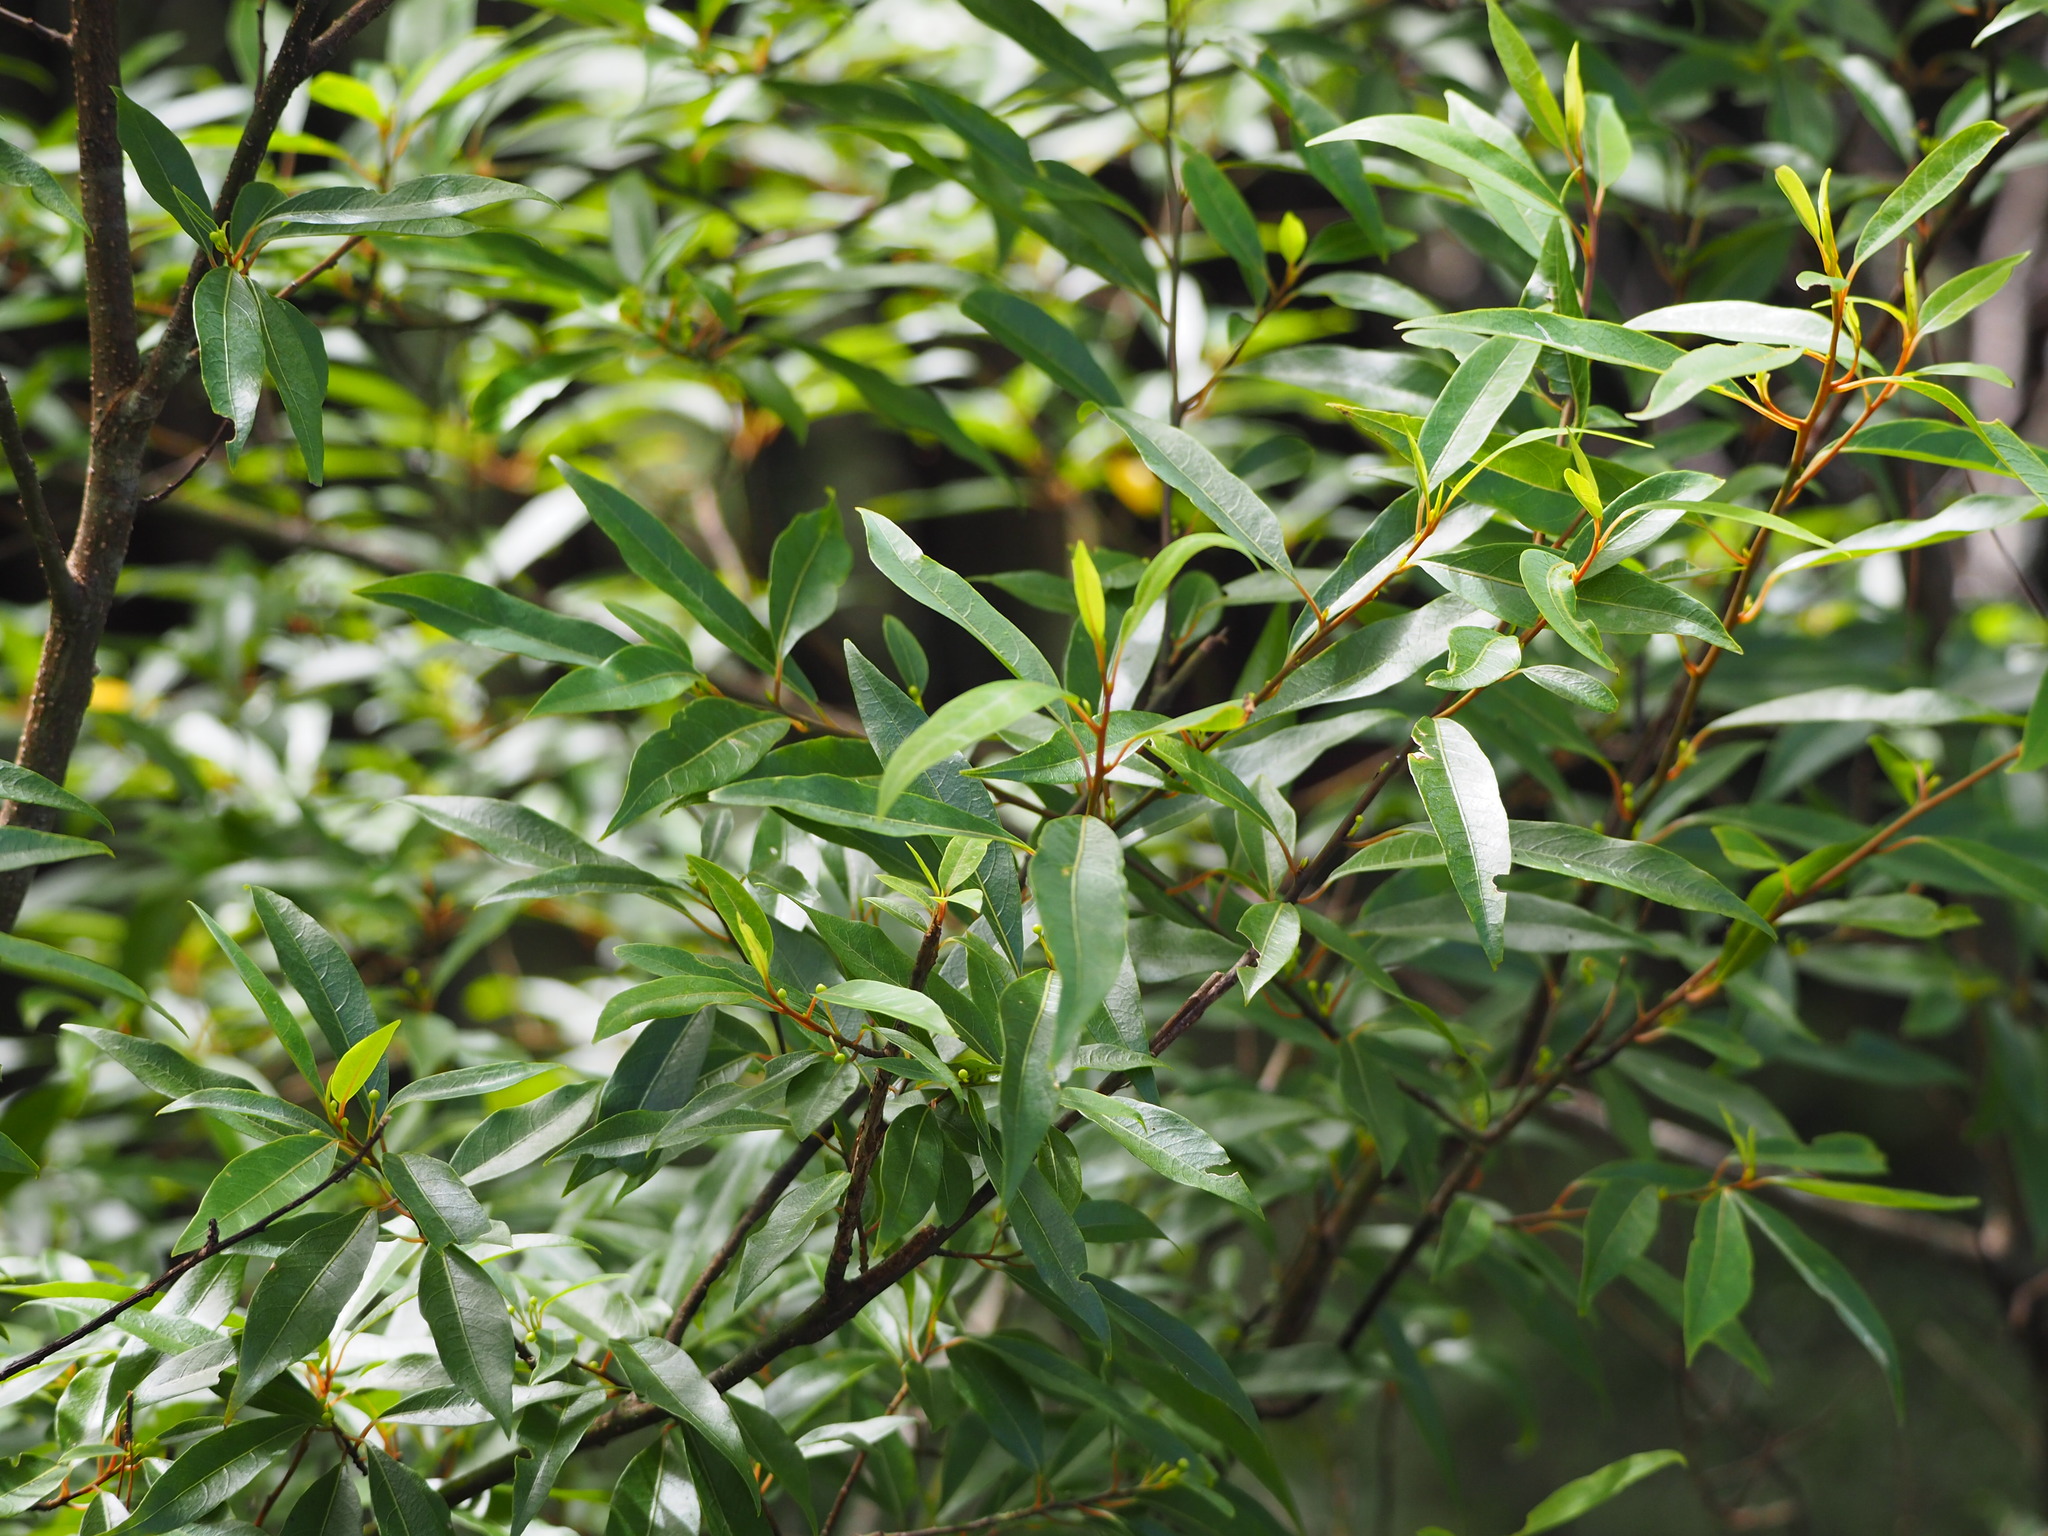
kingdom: Plantae
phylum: Tracheophyta
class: Magnoliopsida
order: Laurales
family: Lauraceae
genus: Litsea
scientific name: Litsea cubeba
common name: Mountain-pepper
